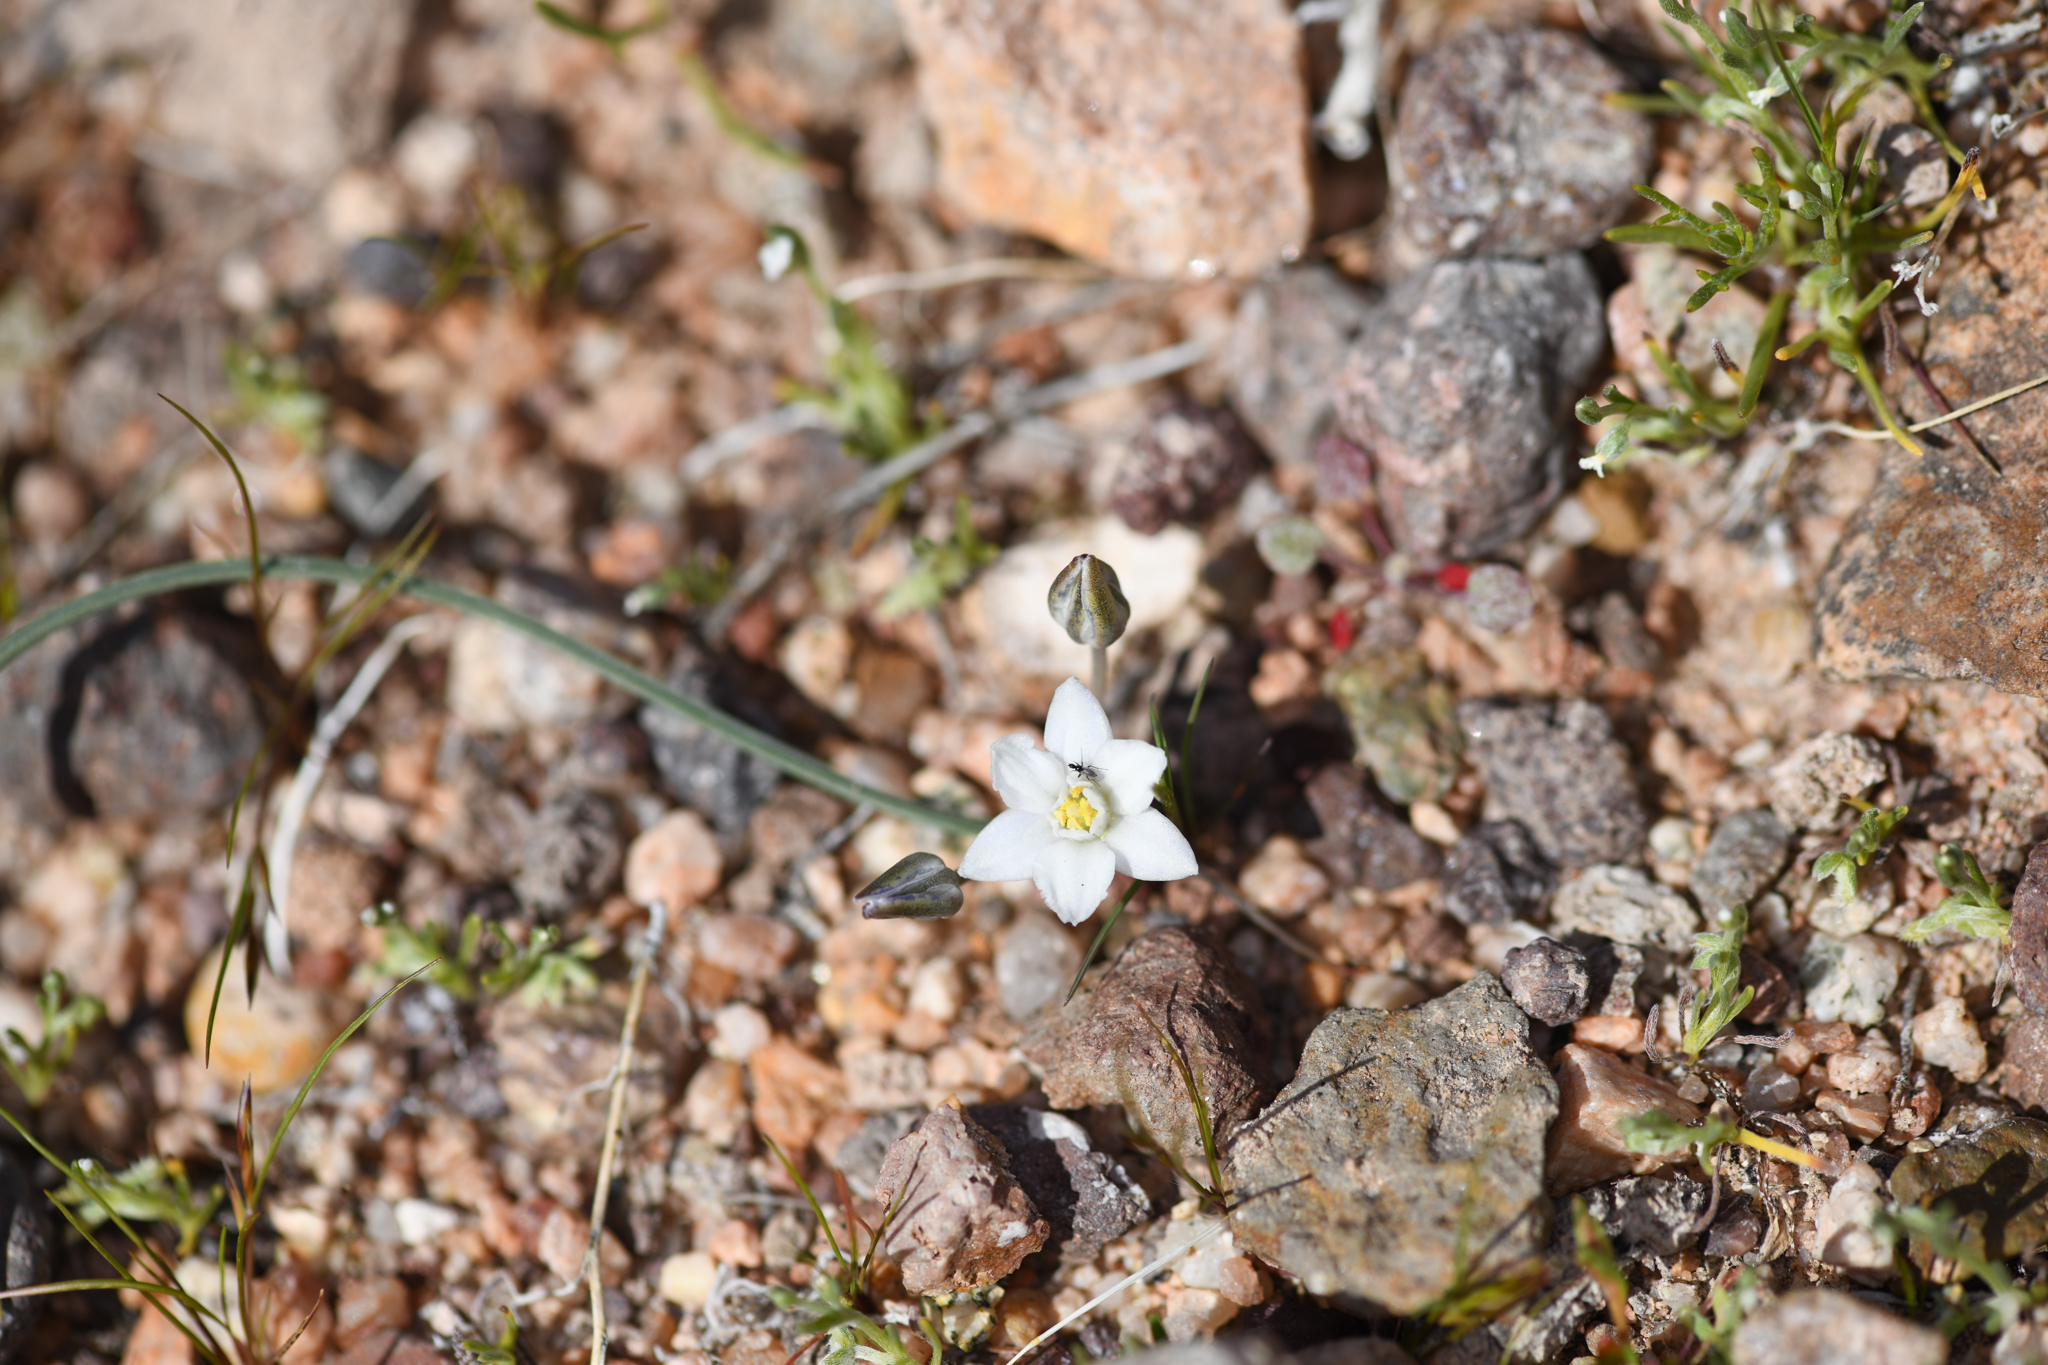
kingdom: Plantae
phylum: Tracheophyta
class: Liliopsida
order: Asparagales
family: Asparagaceae
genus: Muilla
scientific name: Muilla coronata
